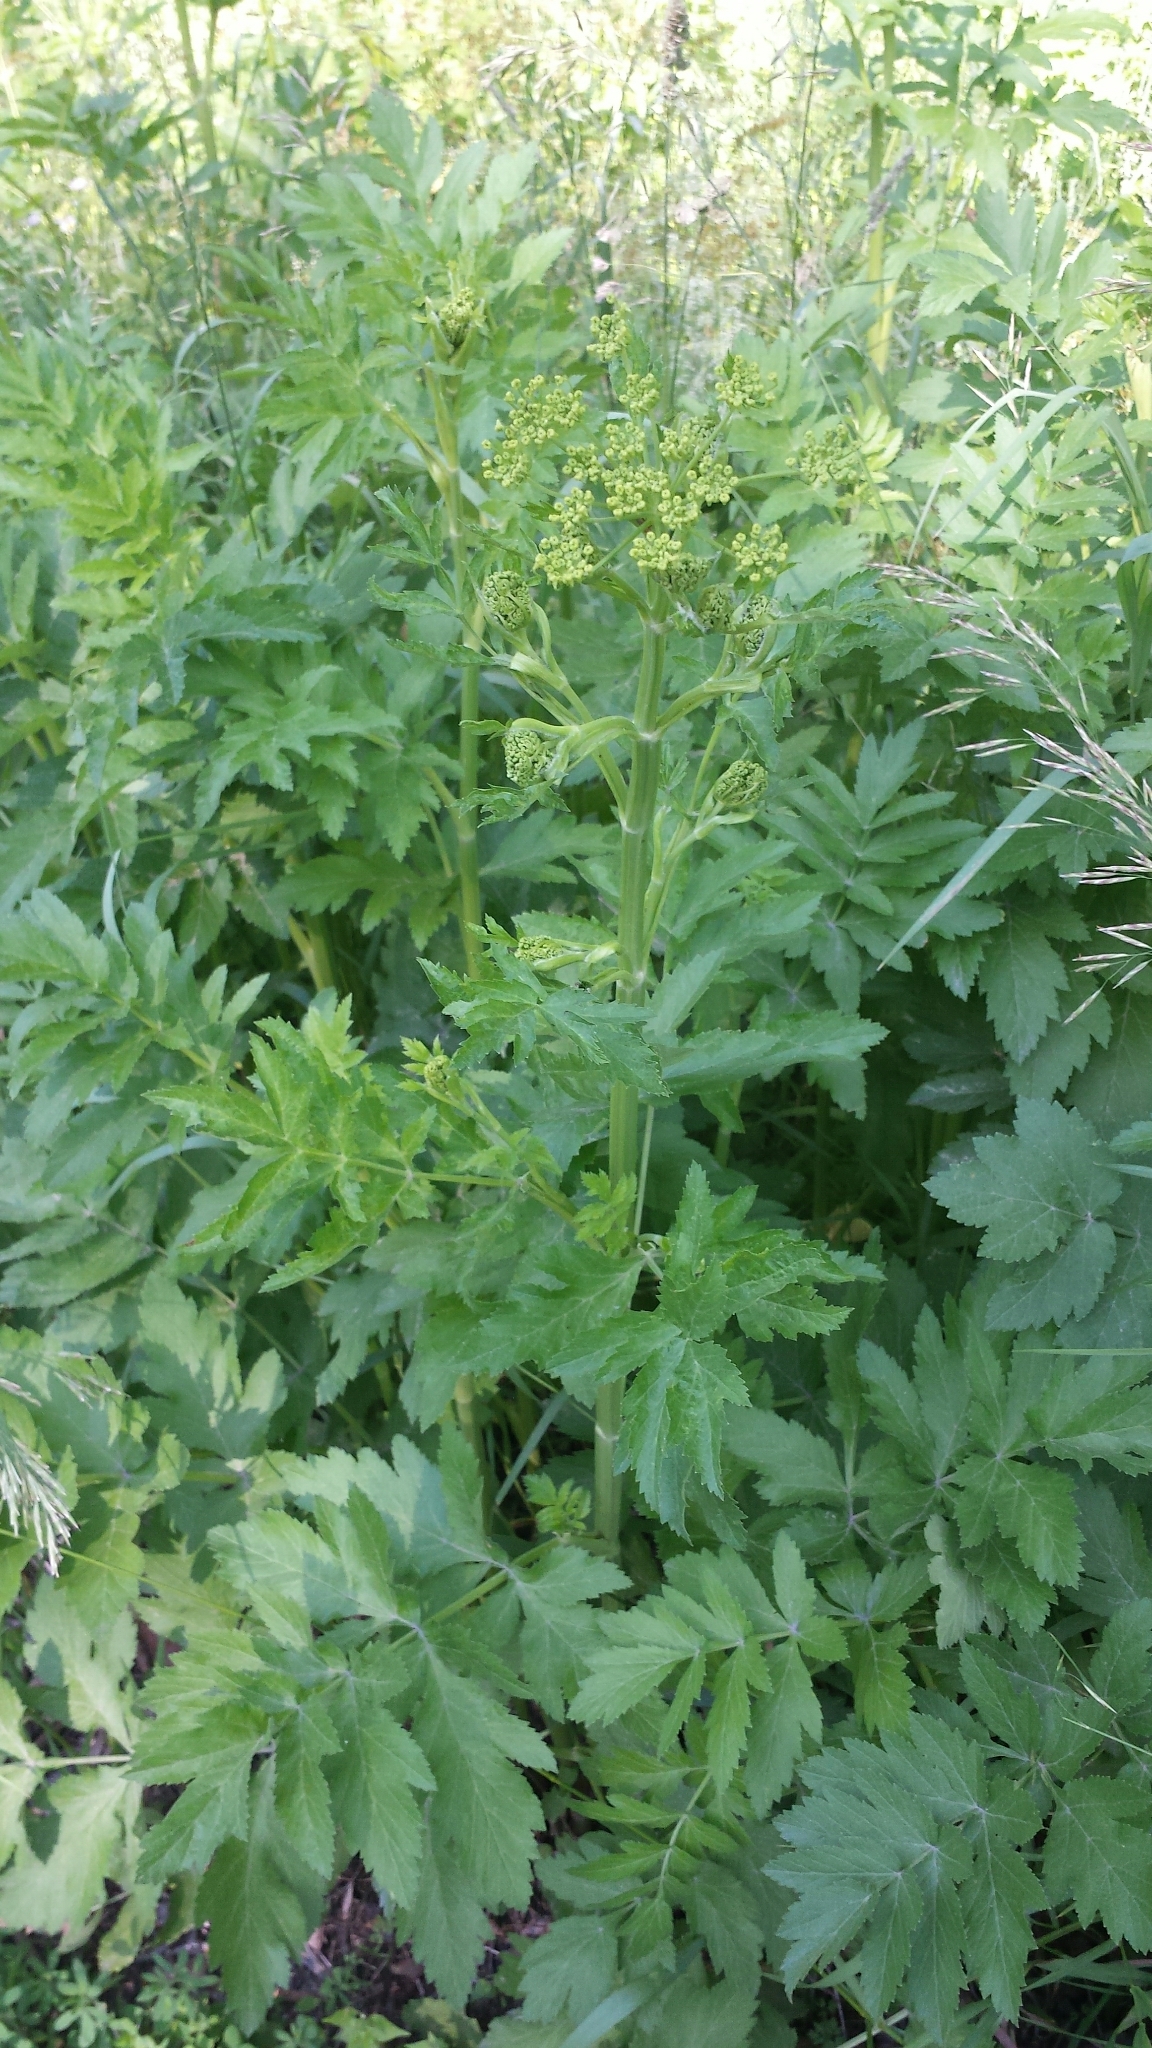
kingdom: Plantae
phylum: Tracheophyta
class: Magnoliopsida
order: Apiales
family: Apiaceae
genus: Pastinaca
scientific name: Pastinaca sativa
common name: Wild parsnip
